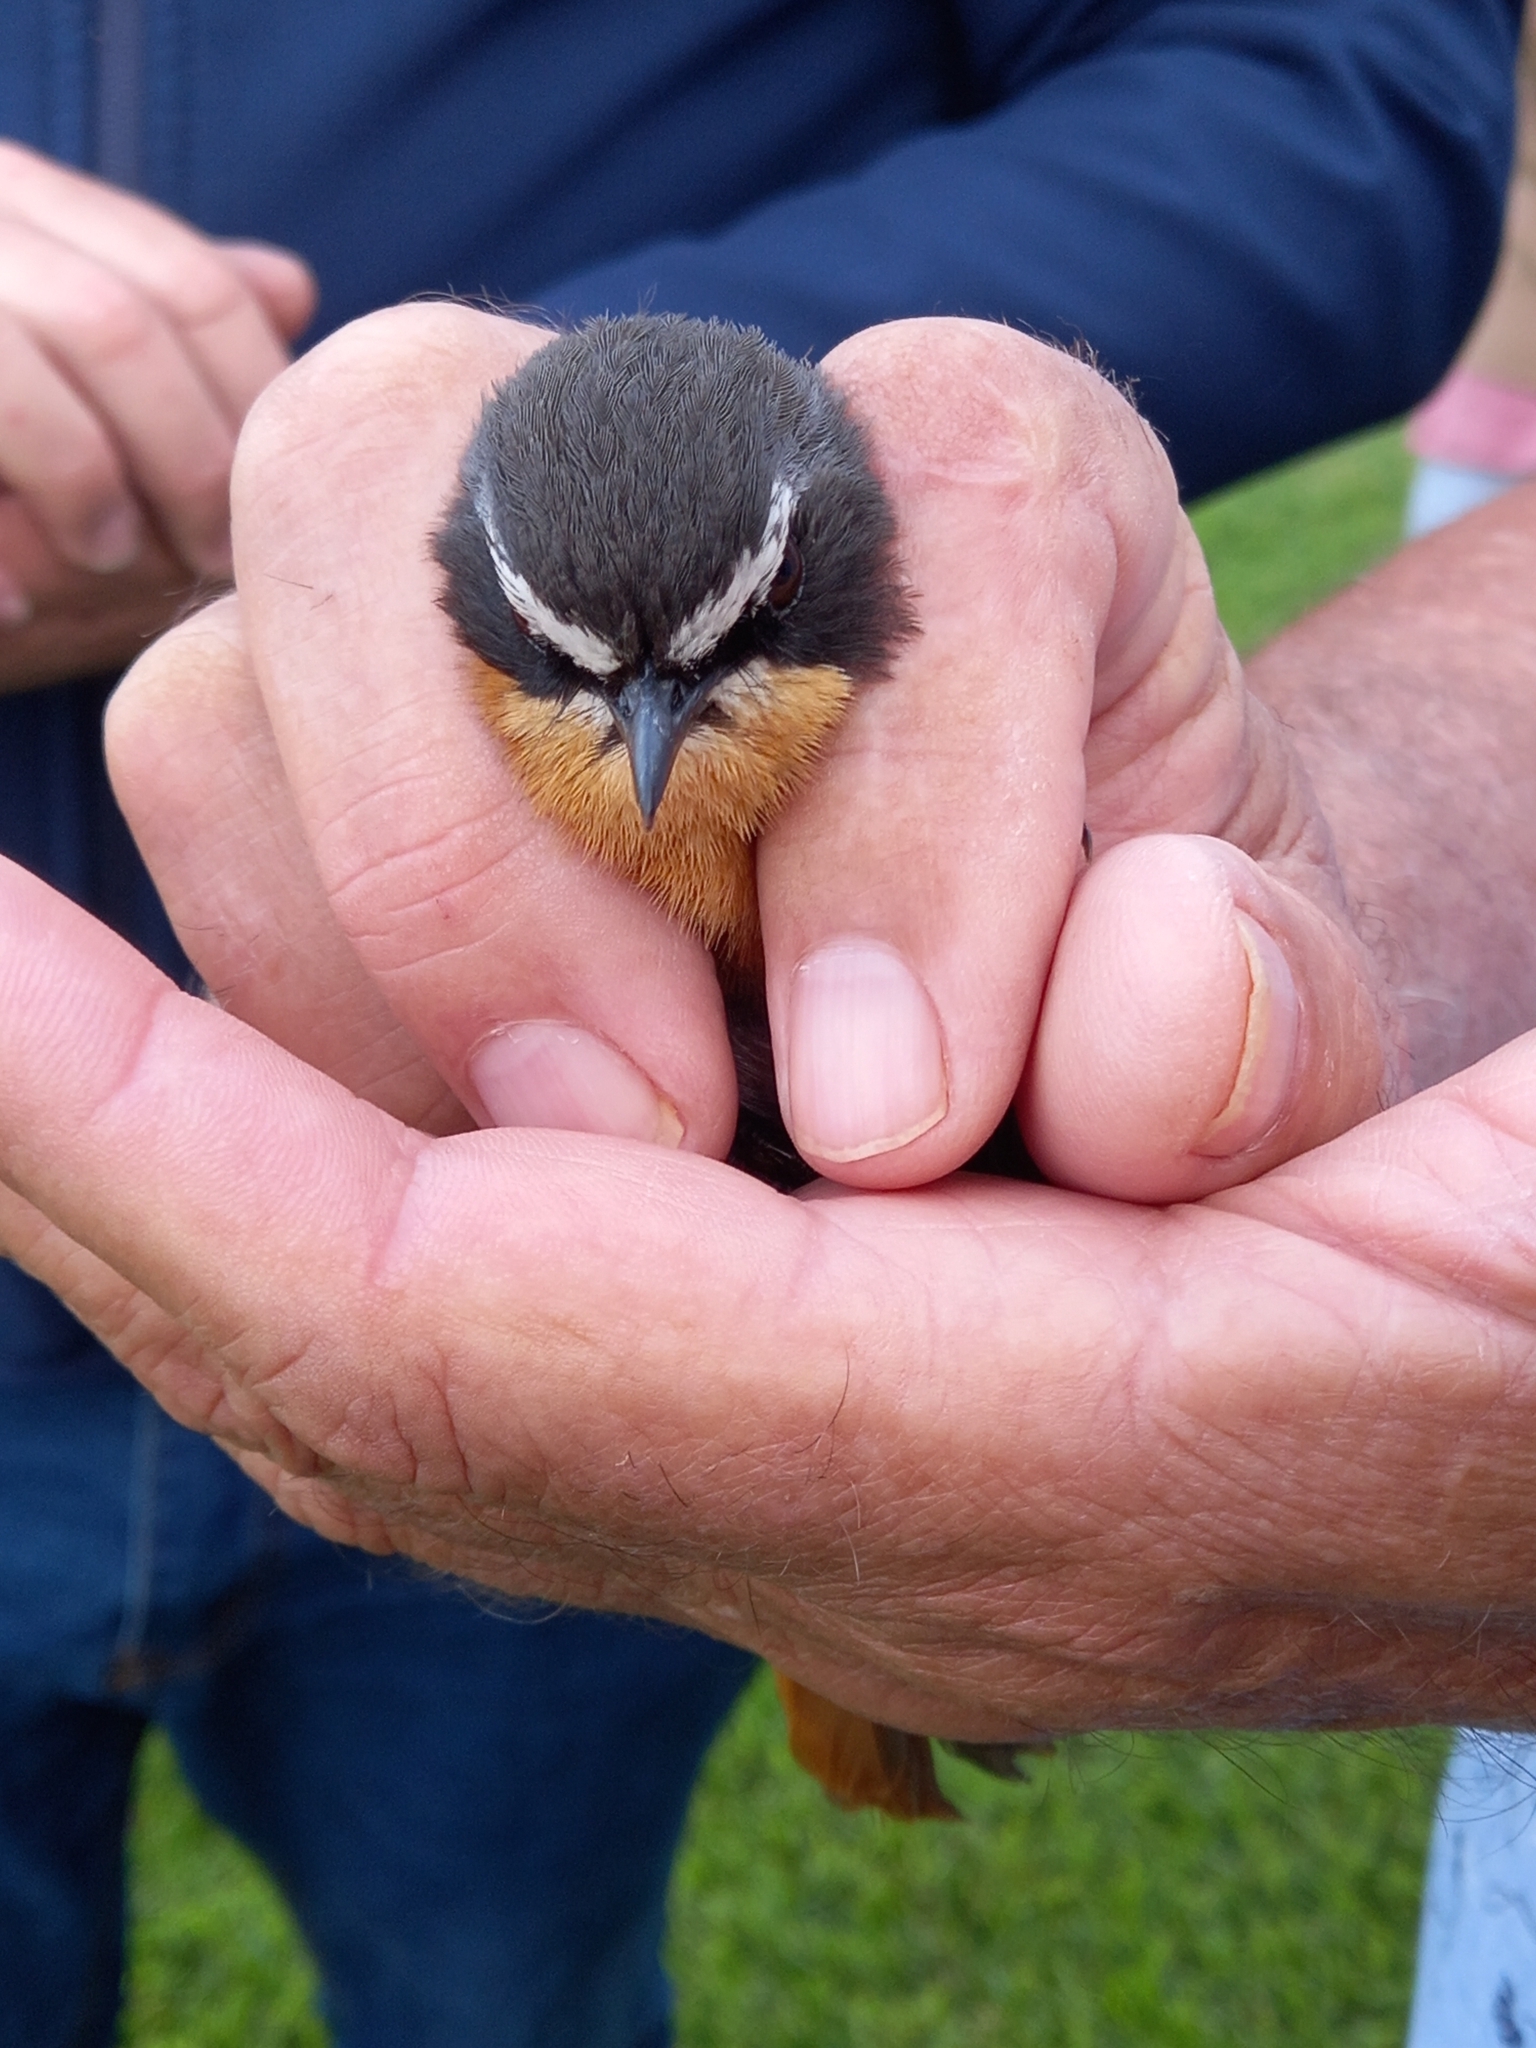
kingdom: Animalia
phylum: Chordata
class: Aves
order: Passeriformes
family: Muscicapidae
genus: Cossypha
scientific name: Cossypha caffra
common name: Cape robin-chat
